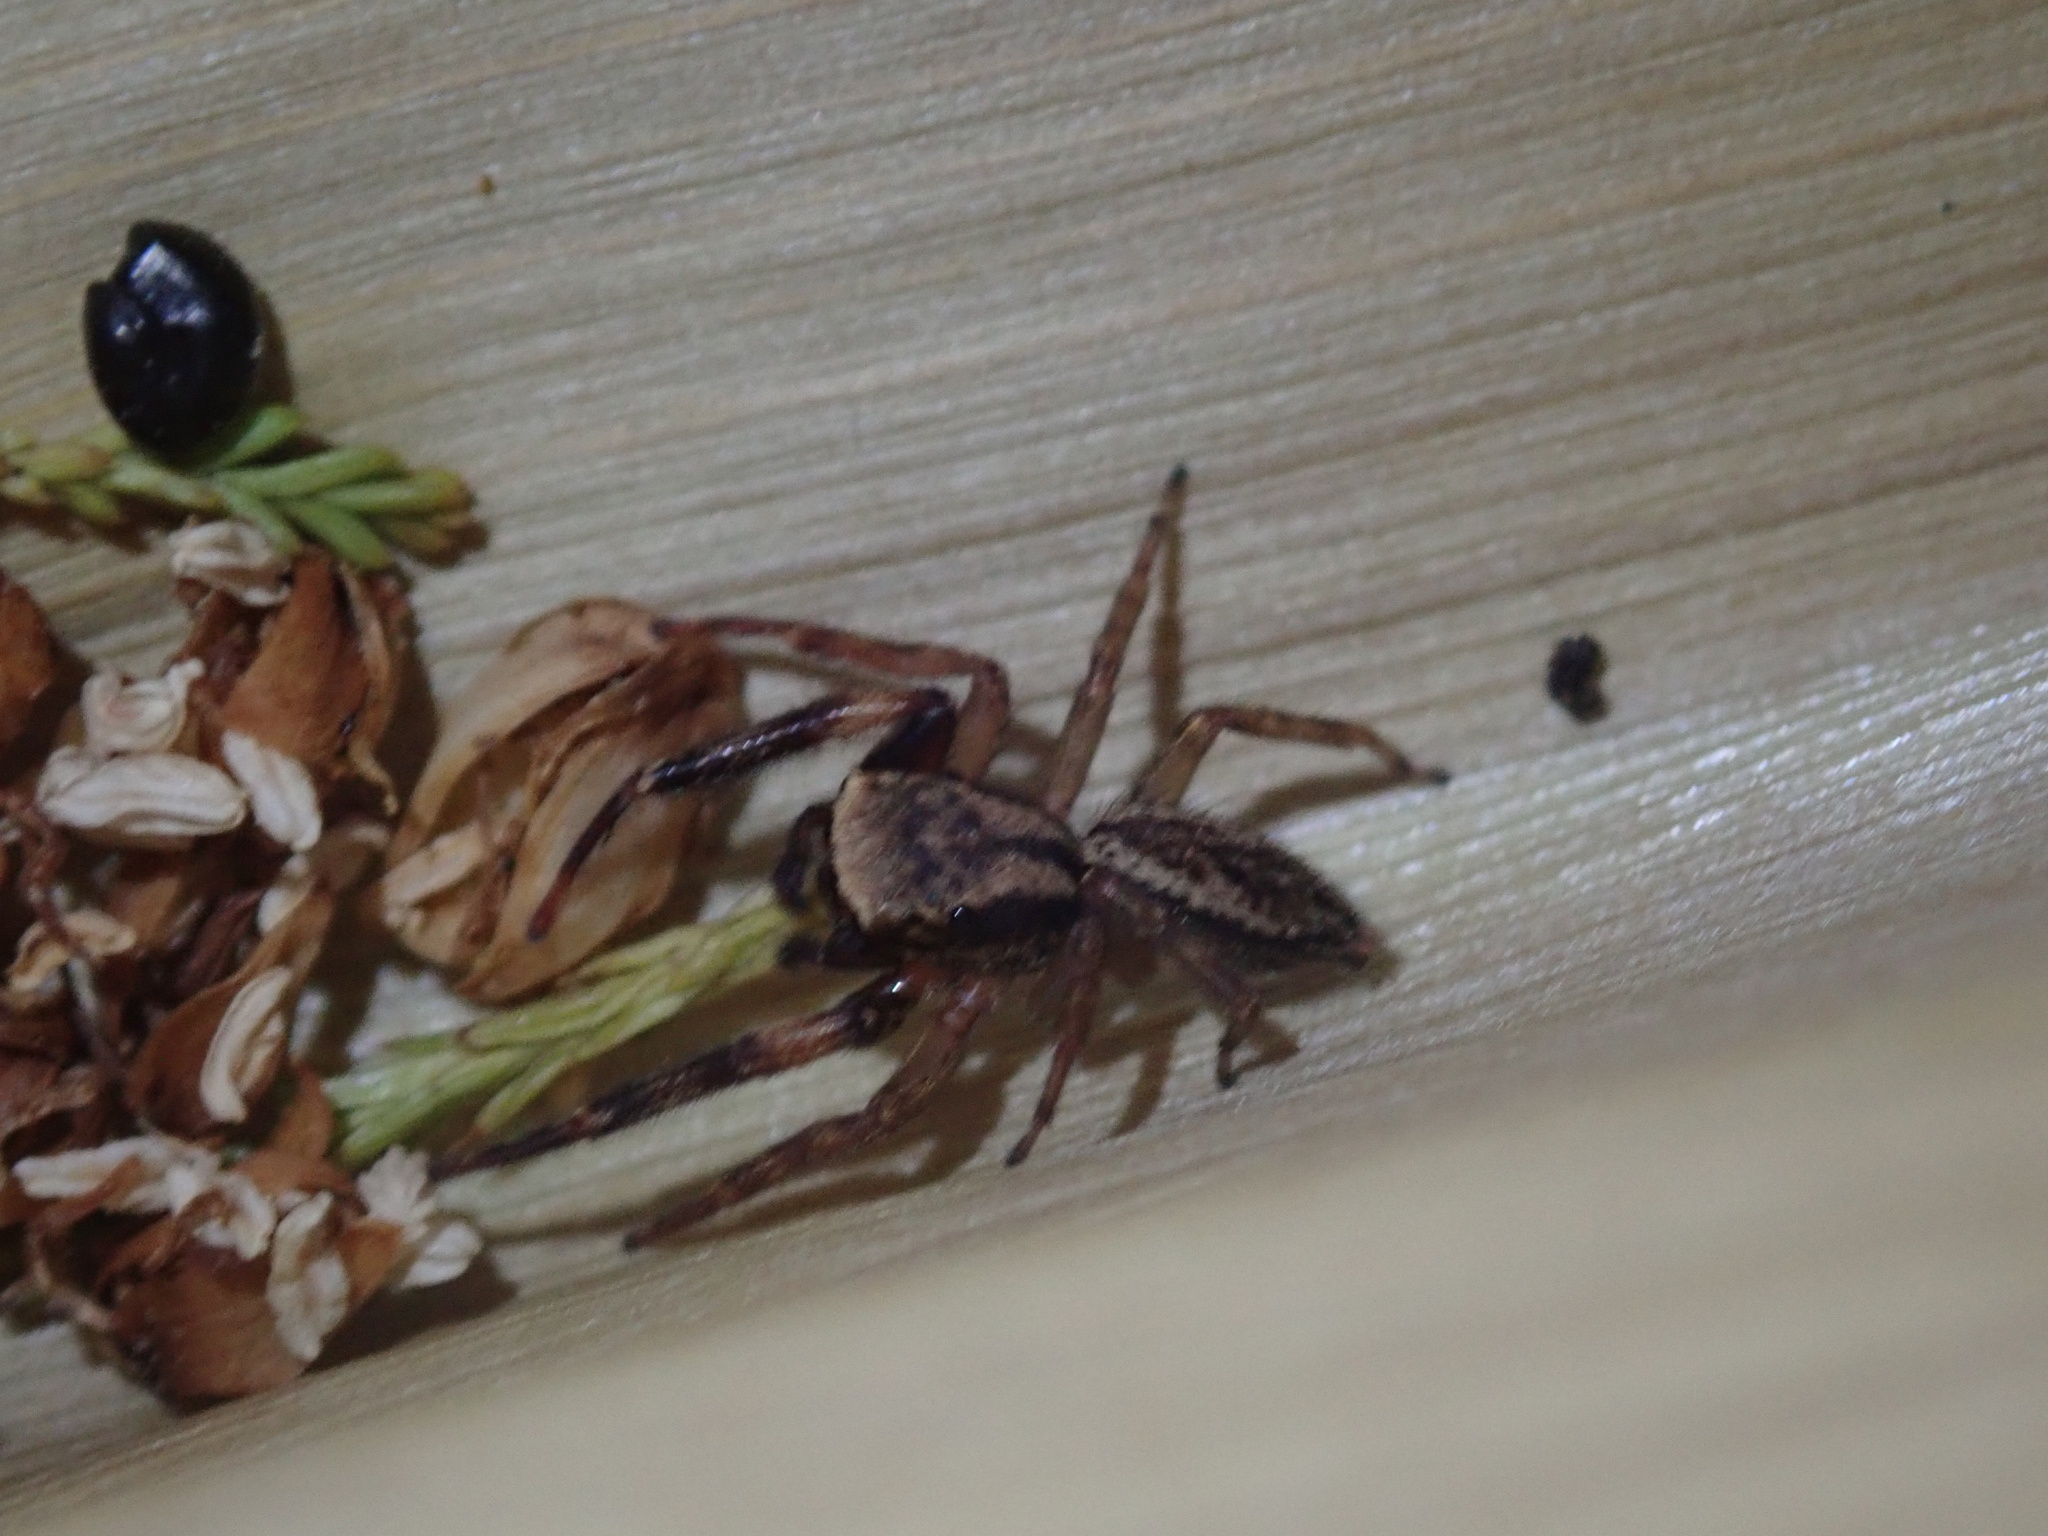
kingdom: Animalia
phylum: Arthropoda
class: Arachnida
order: Araneae
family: Salticidae
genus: Trite
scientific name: Trite auricoma
